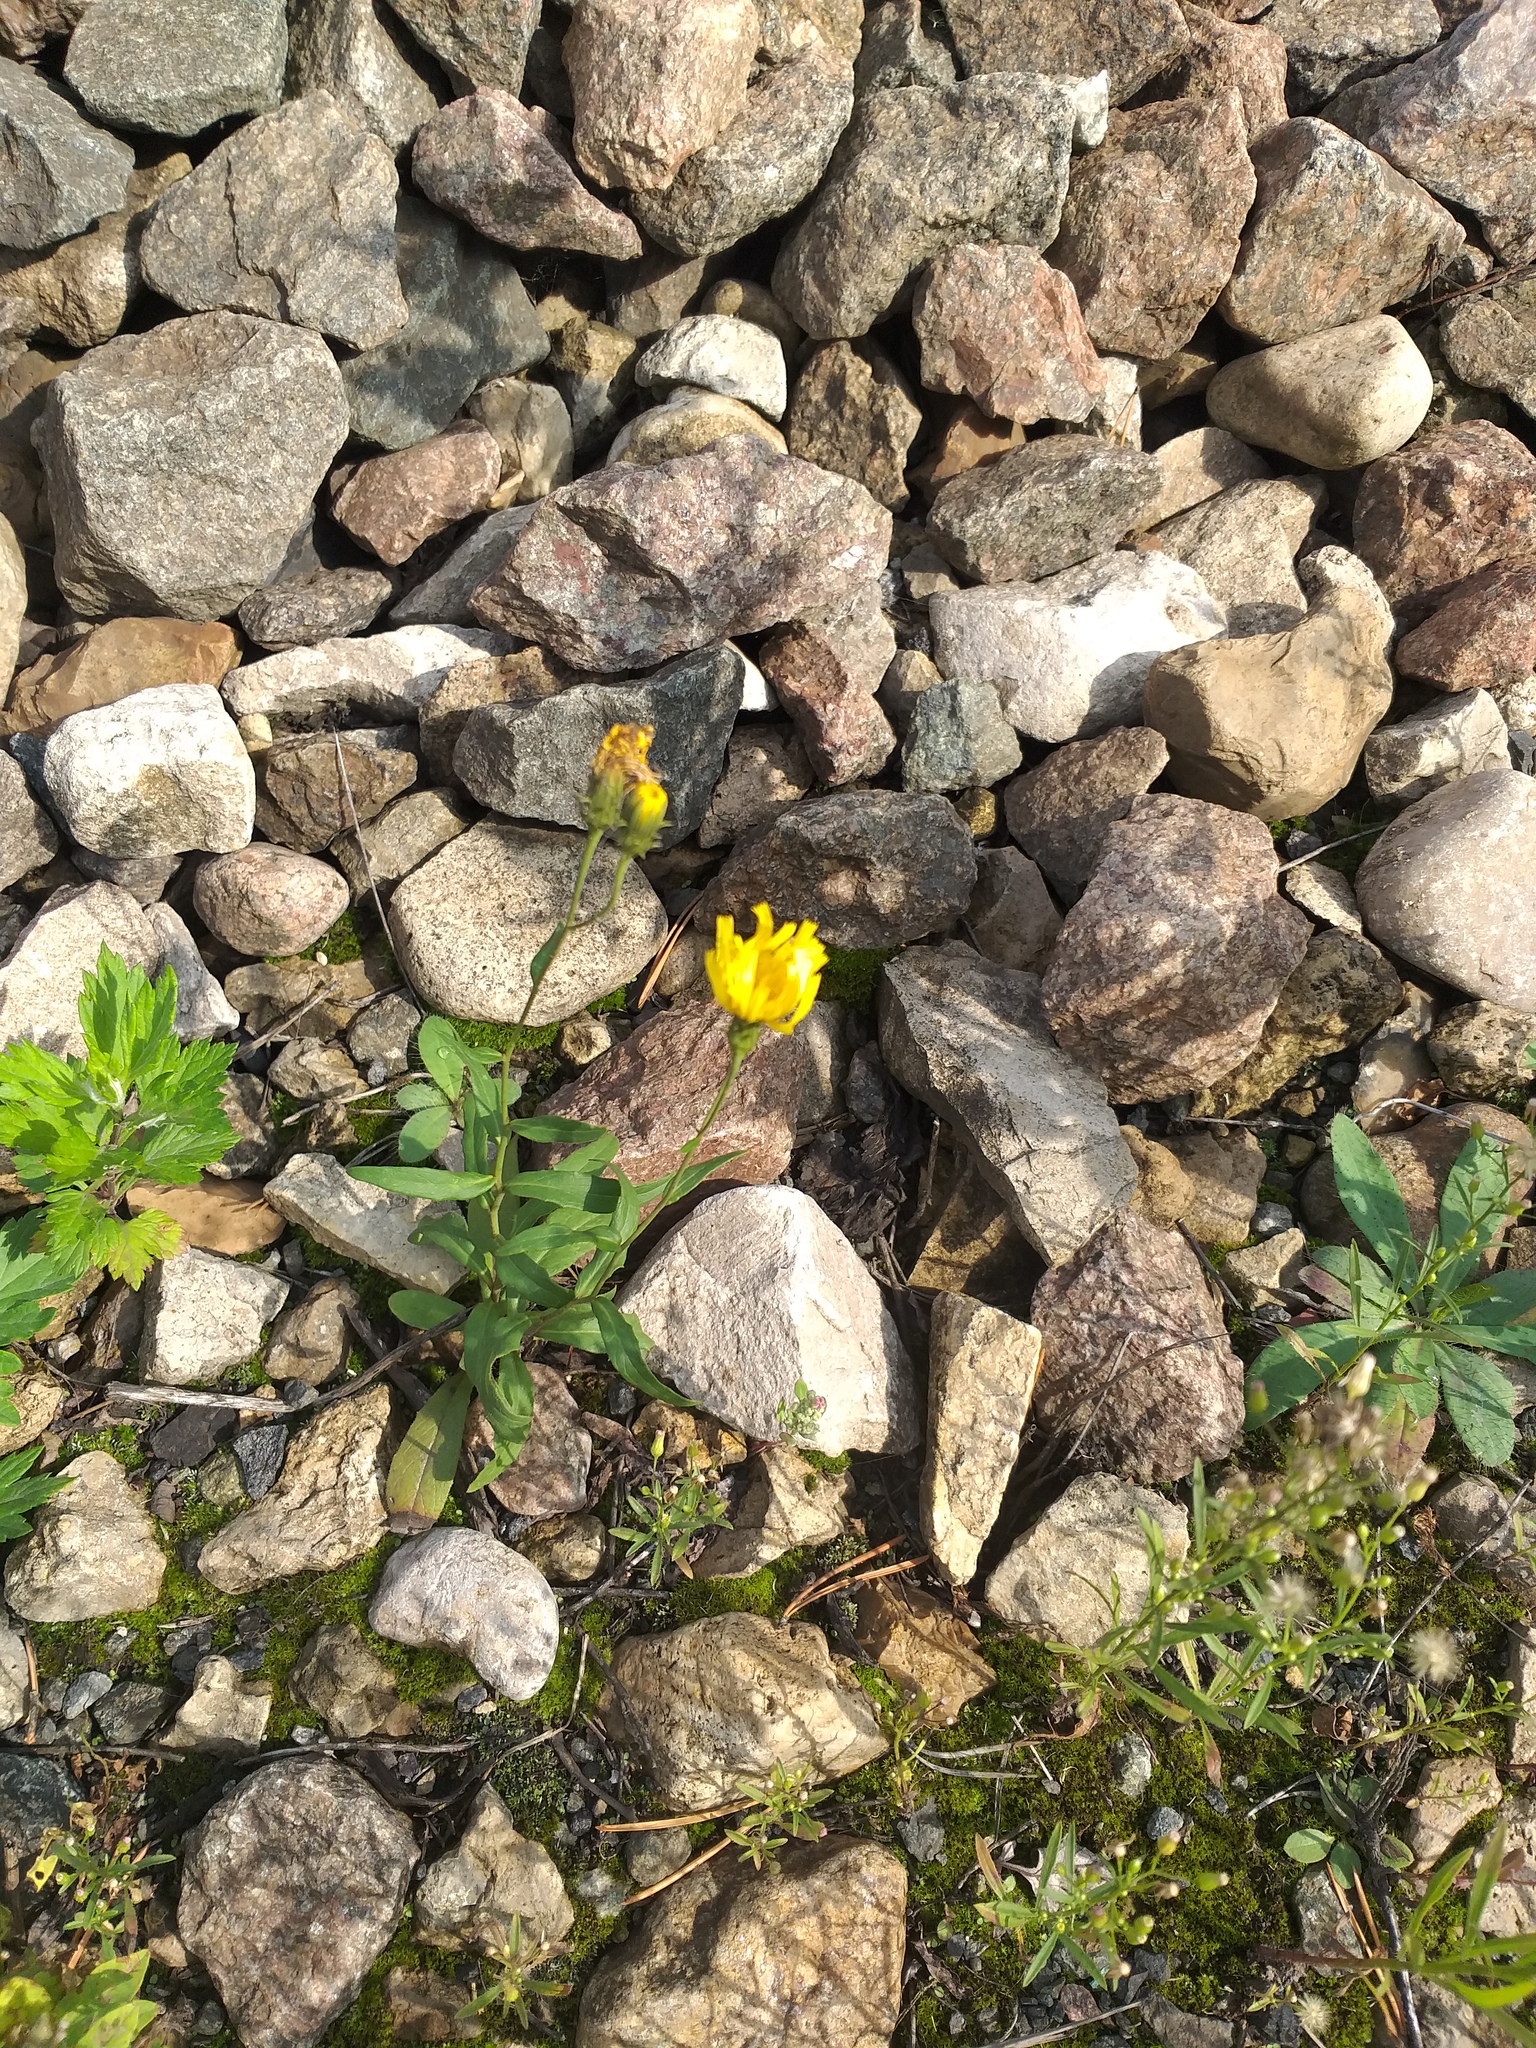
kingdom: Plantae
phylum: Tracheophyta
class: Magnoliopsida
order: Asterales
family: Asteraceae
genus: Hieracium
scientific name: Hieracium umbellatum
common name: Northern hawkweed
